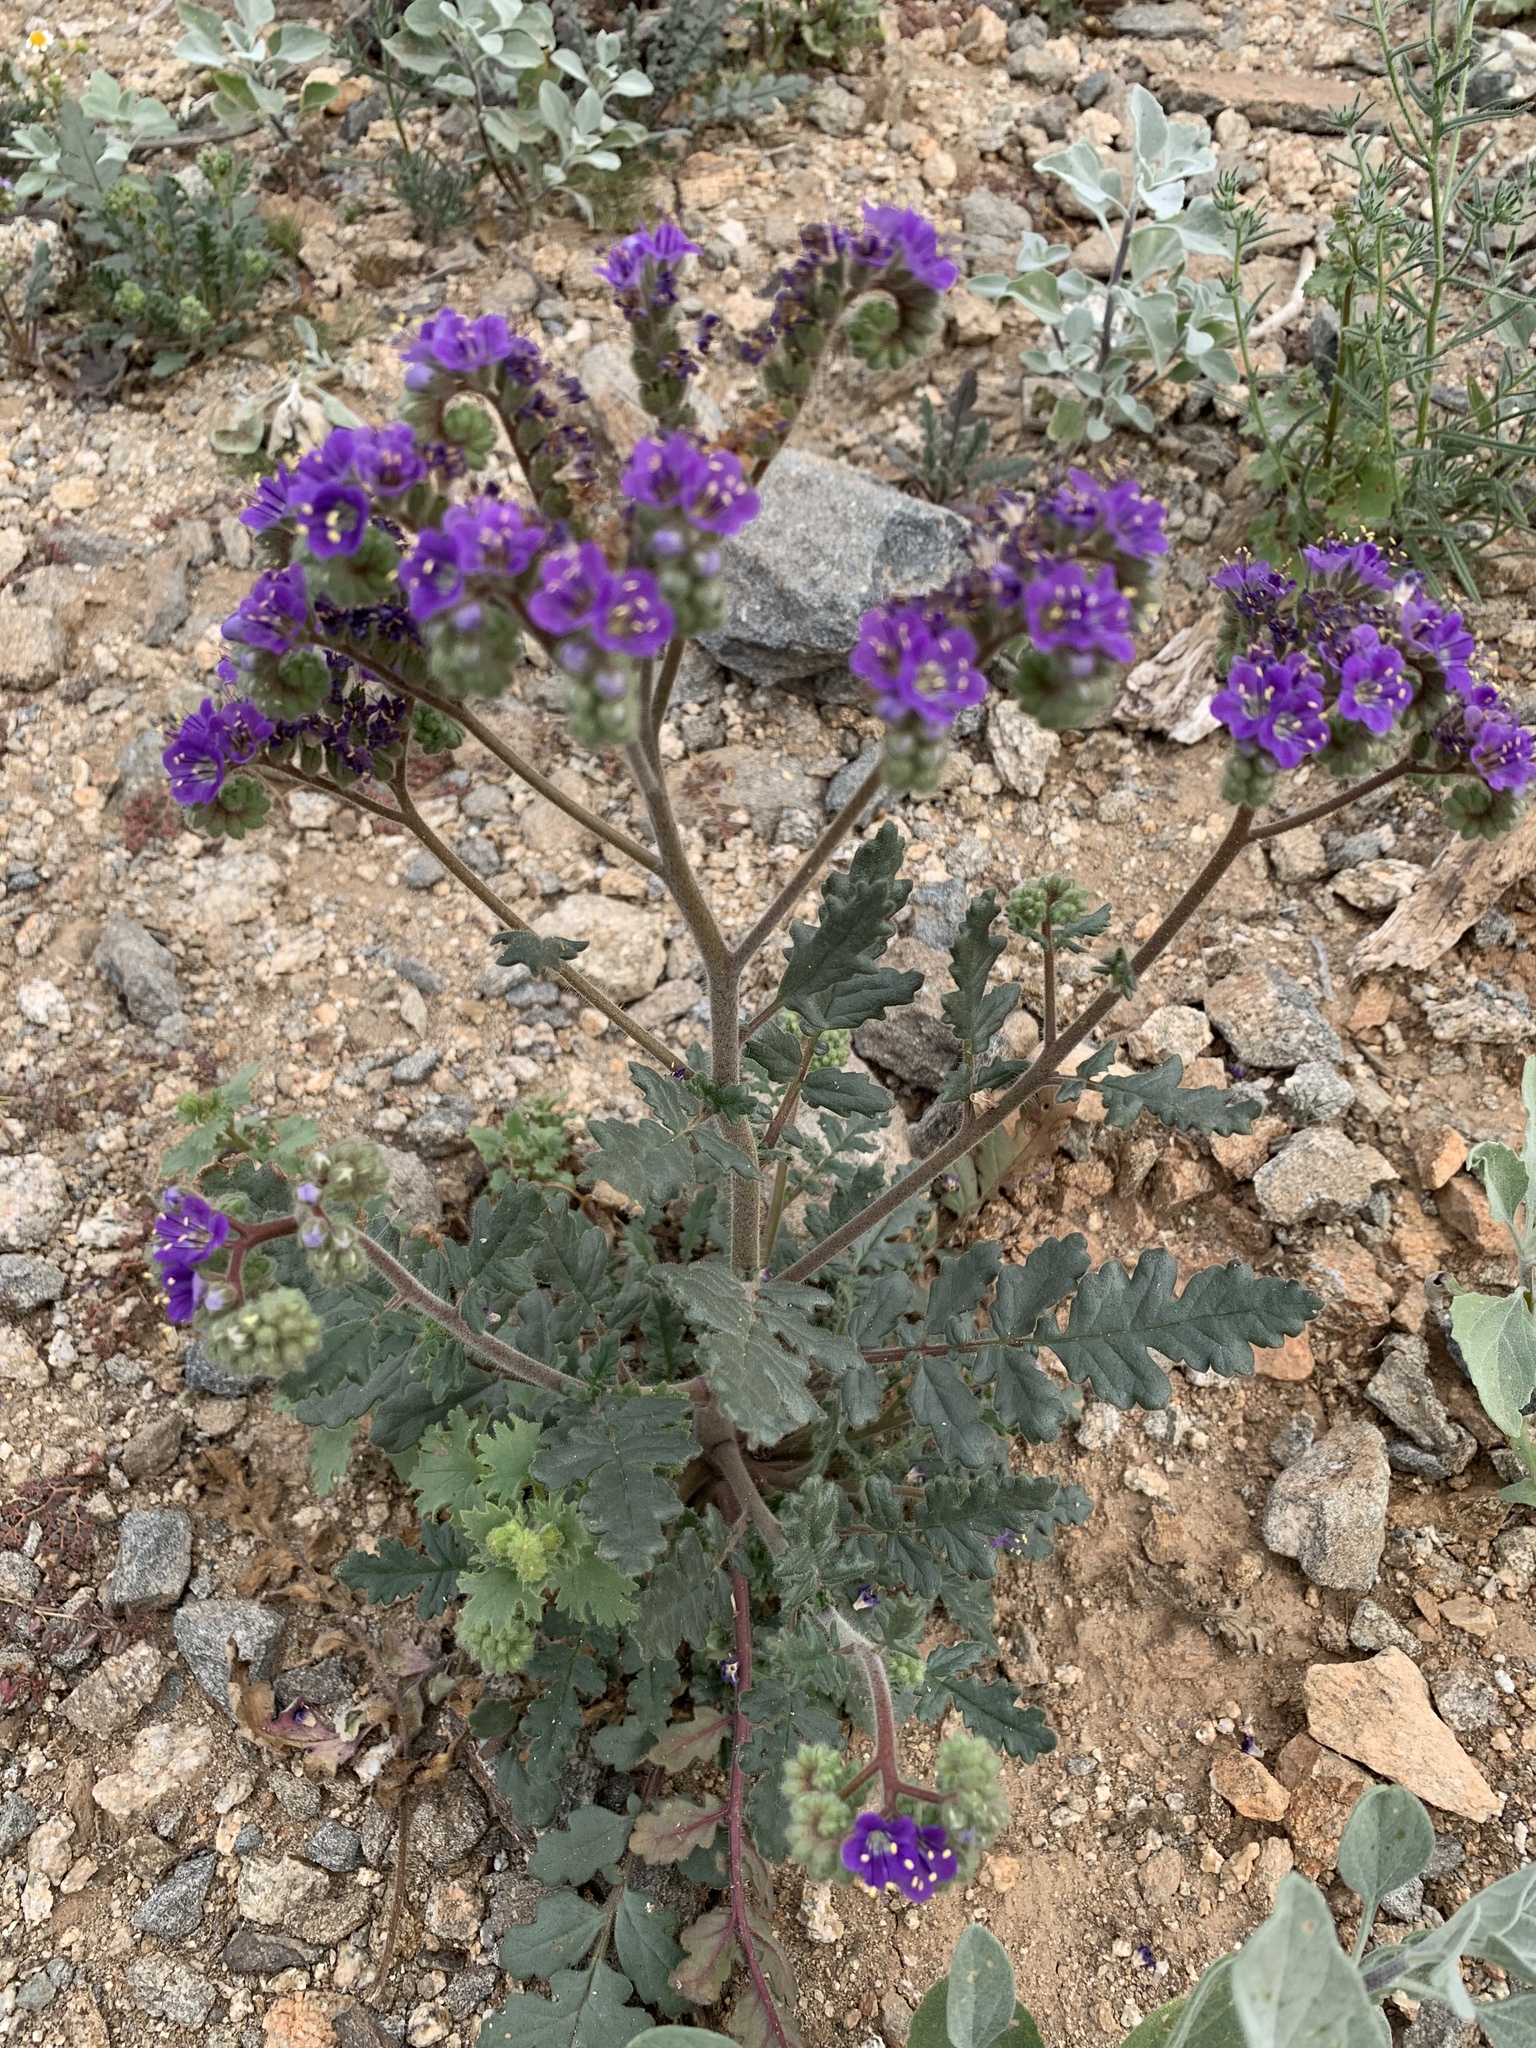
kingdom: Plantae
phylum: Tracheophyta
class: Magnoliopsida
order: Boraginales
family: Hydrophyllaceae
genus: Phacelia
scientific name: Phacelia crenulata
